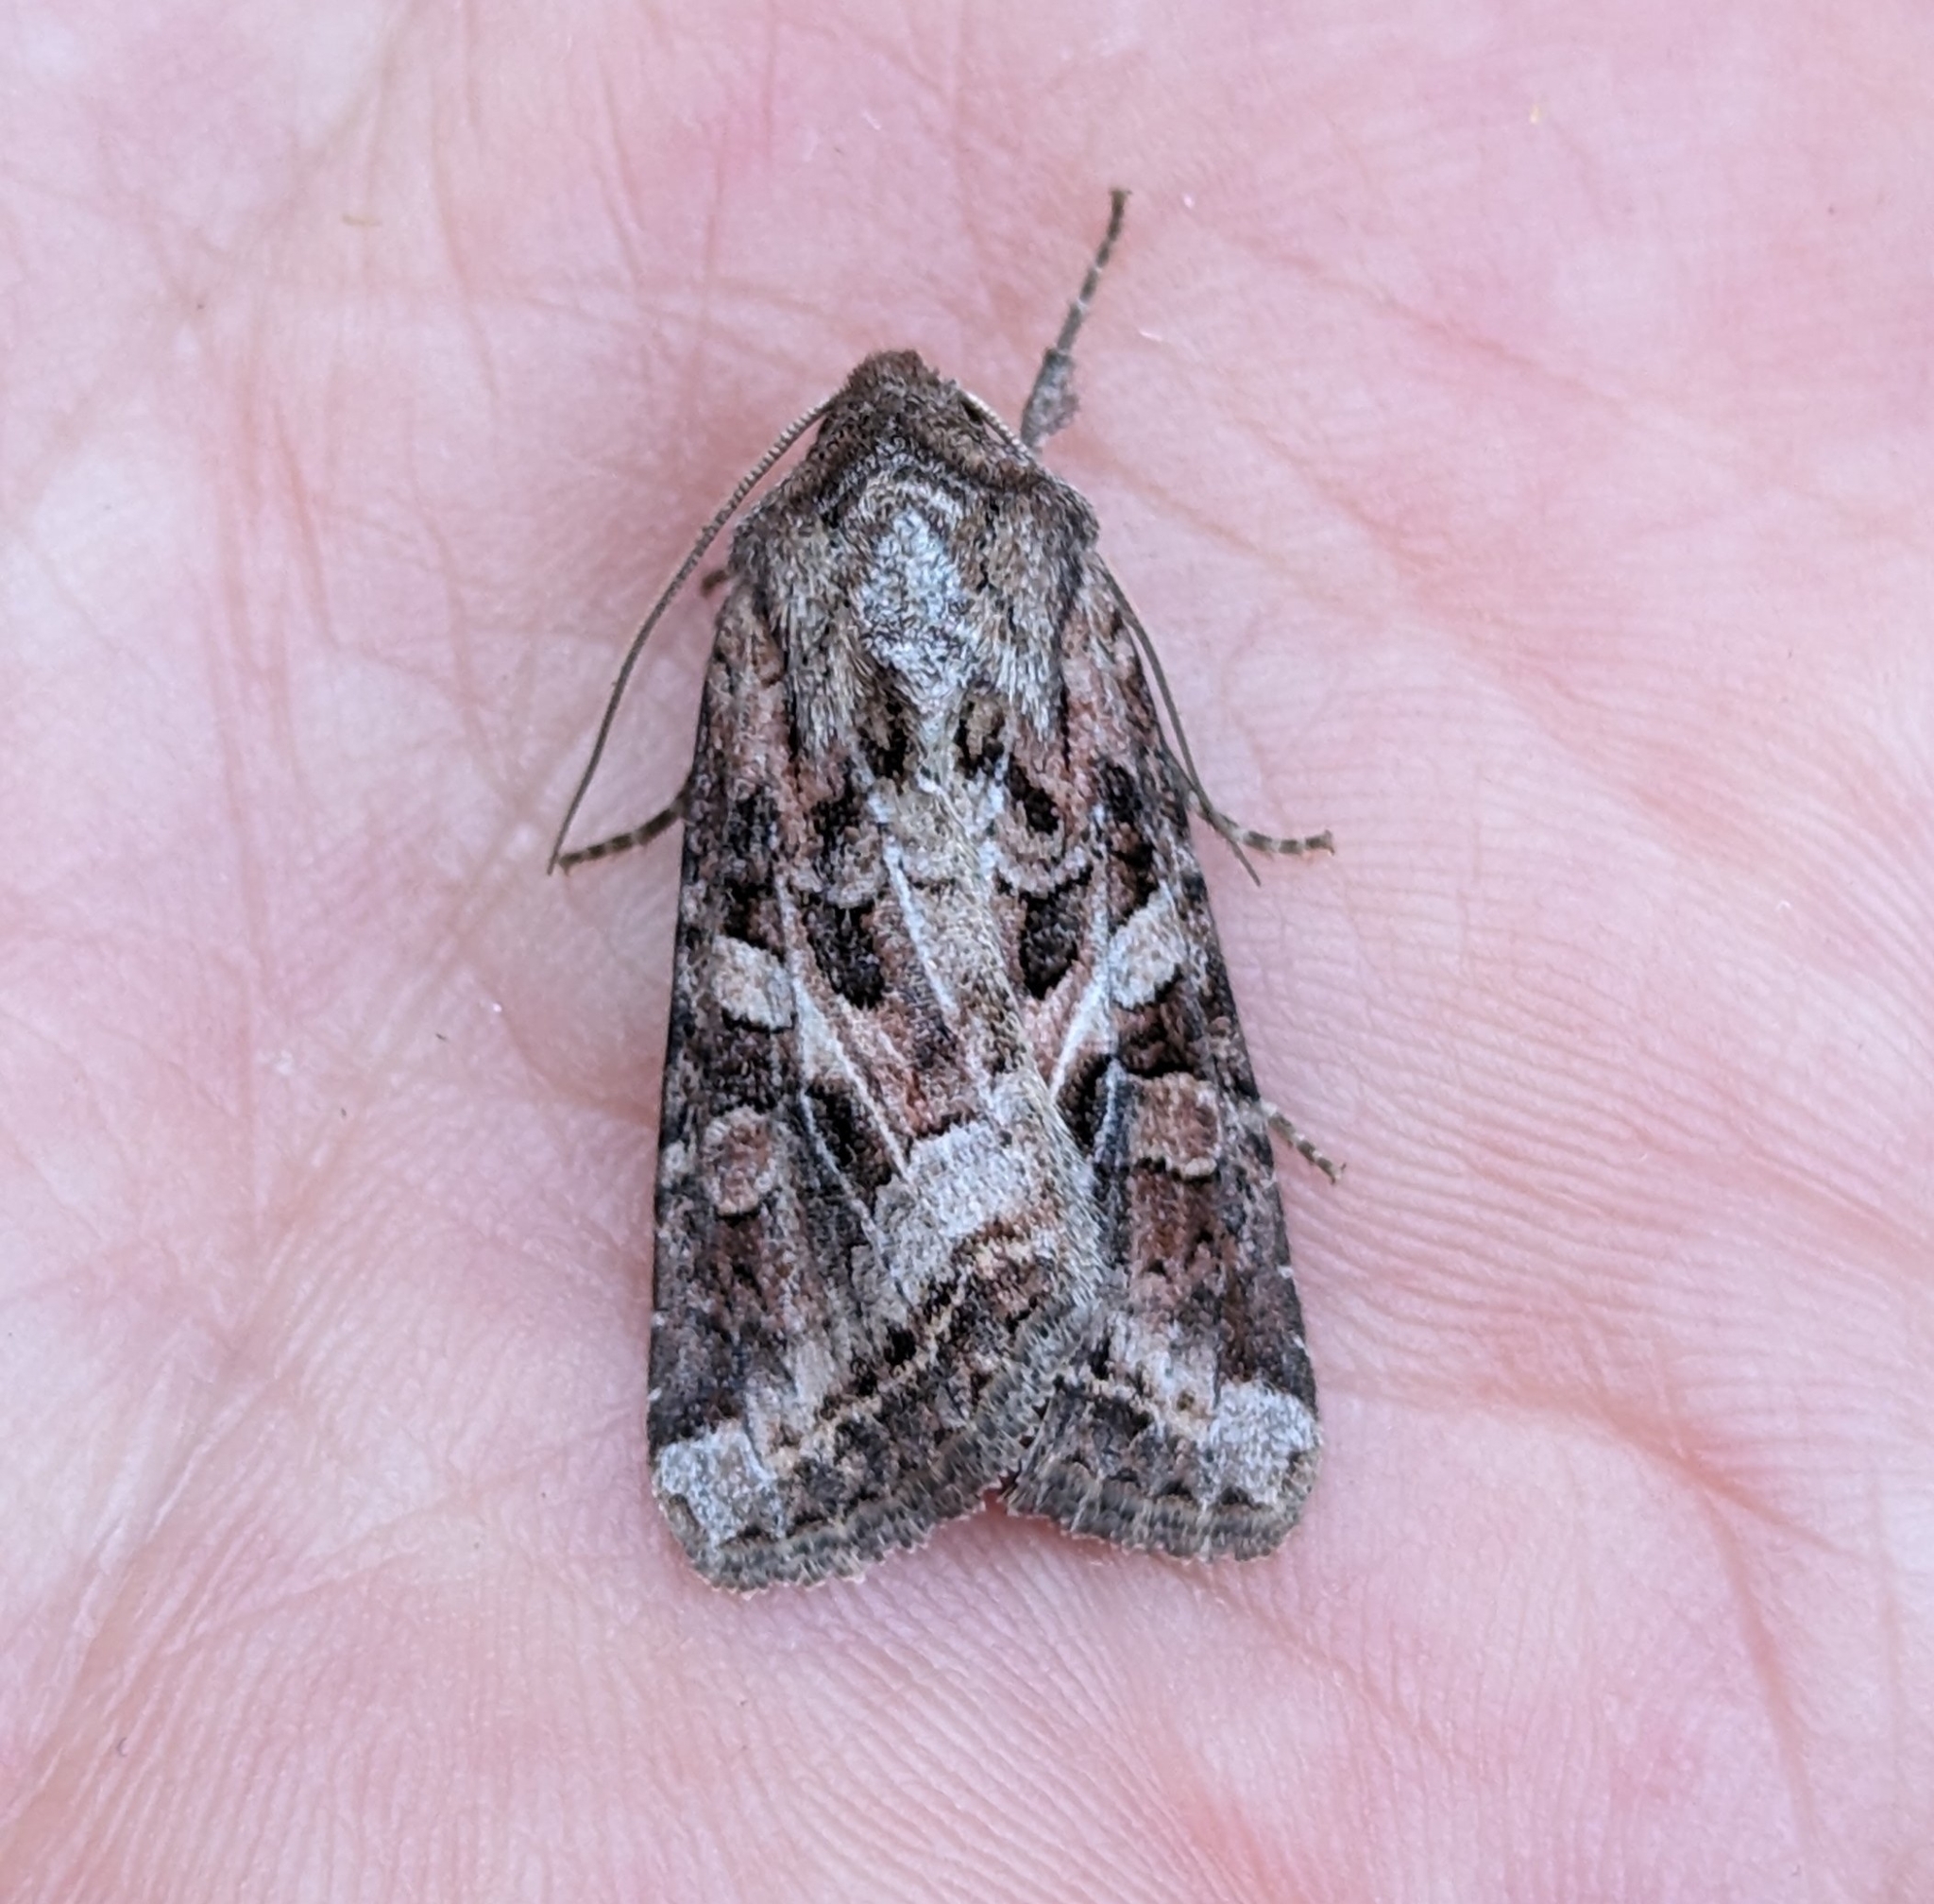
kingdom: Animalia
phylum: Arthropoda
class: Insecta
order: Lepidoptera
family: Noctuidae
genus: Trichordestra
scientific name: Trichordestra liquida
